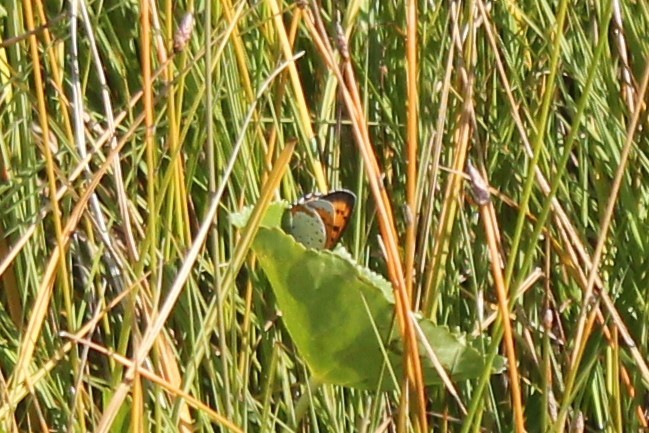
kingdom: Animalia
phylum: Arthropoda
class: Insecta
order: Lepidoptera
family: Lycaenidae
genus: Tharsalea
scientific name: Tharsalea hyllus
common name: Bronze copper
